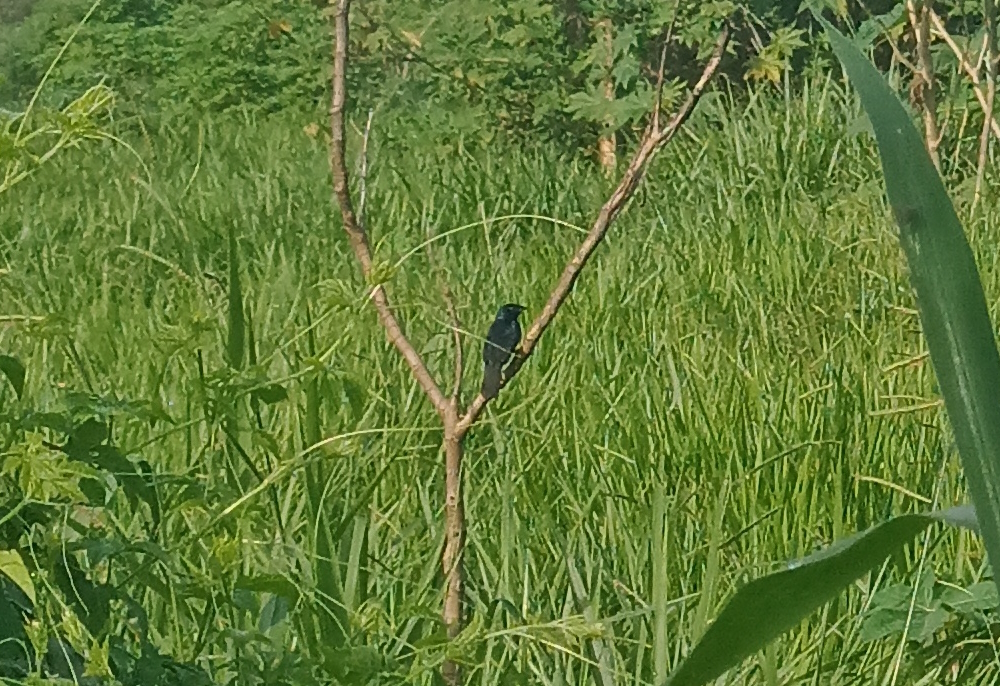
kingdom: Animalia
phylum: Chordata
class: Aves
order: Passeriformes
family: Thraupidae
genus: Volatinia
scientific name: Volatinia jacarina
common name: Blue-black grassquit
